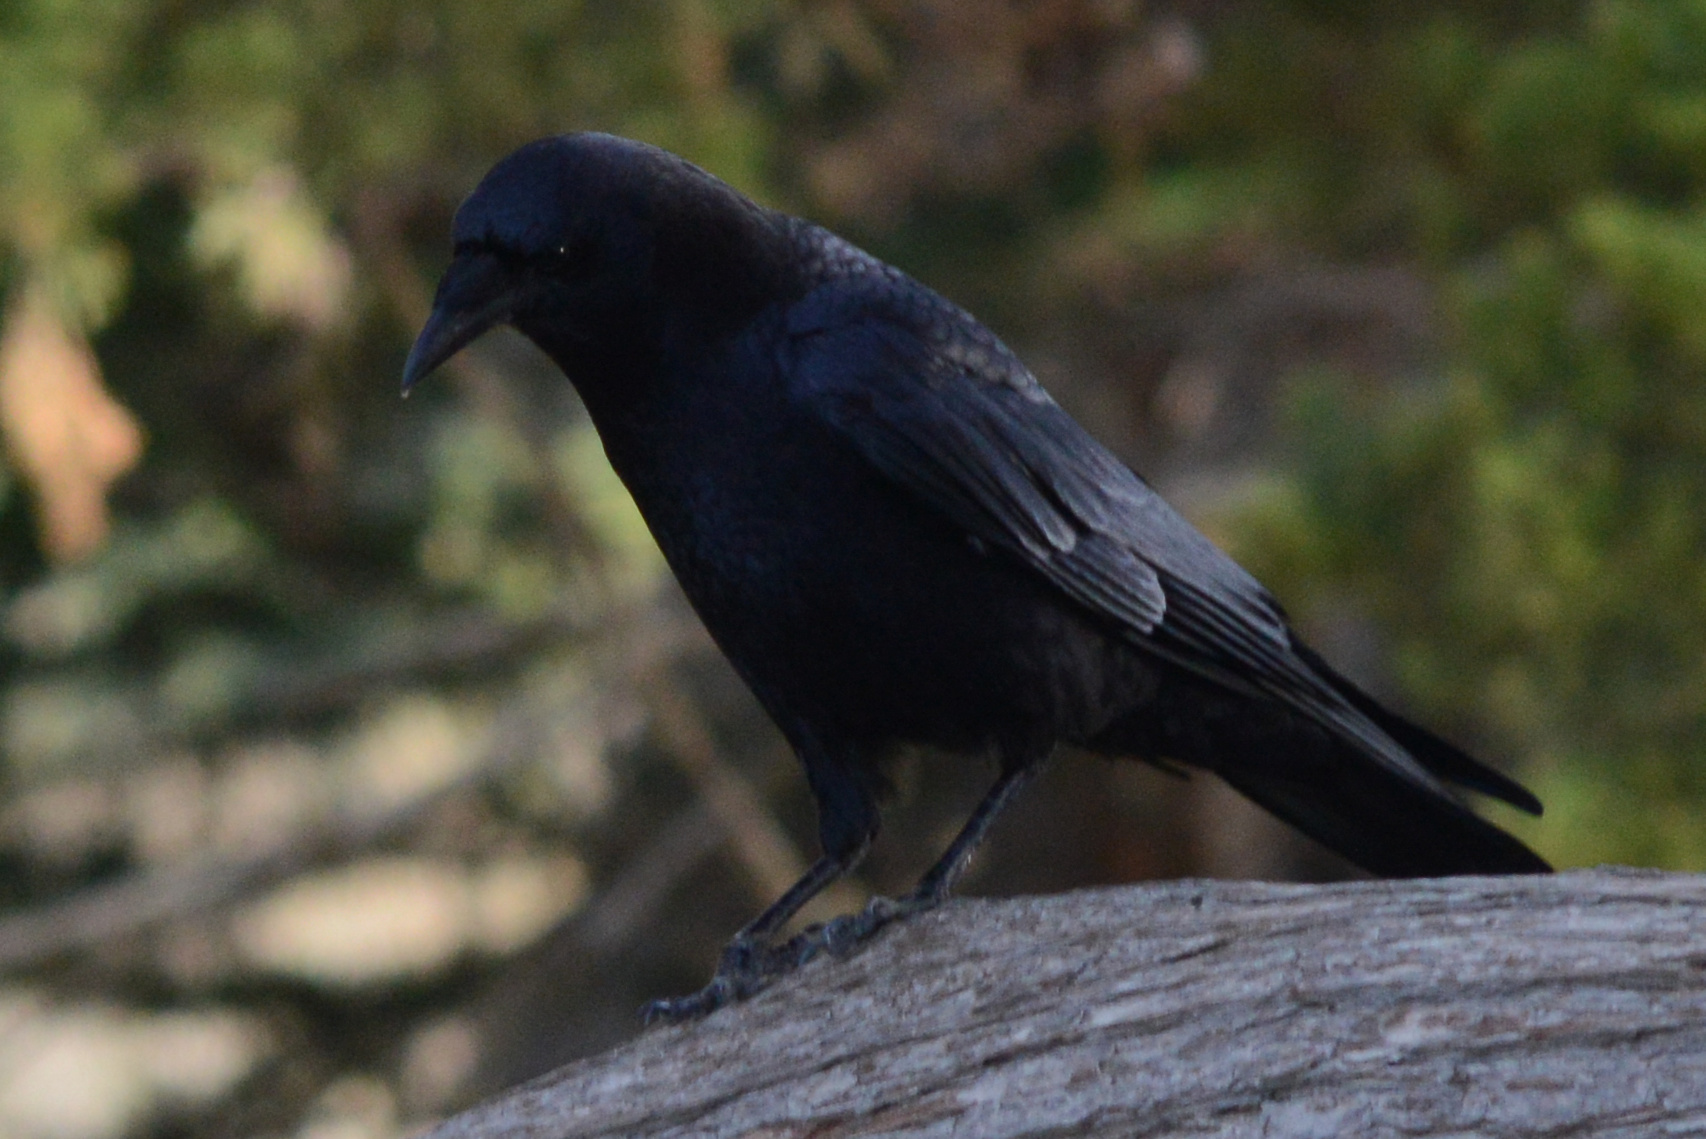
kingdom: Animalia
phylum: Chordata
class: Aves
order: Passeriformes
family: Corvidae
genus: Corvus
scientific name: Corvus brachyrhynchos
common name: American crow
